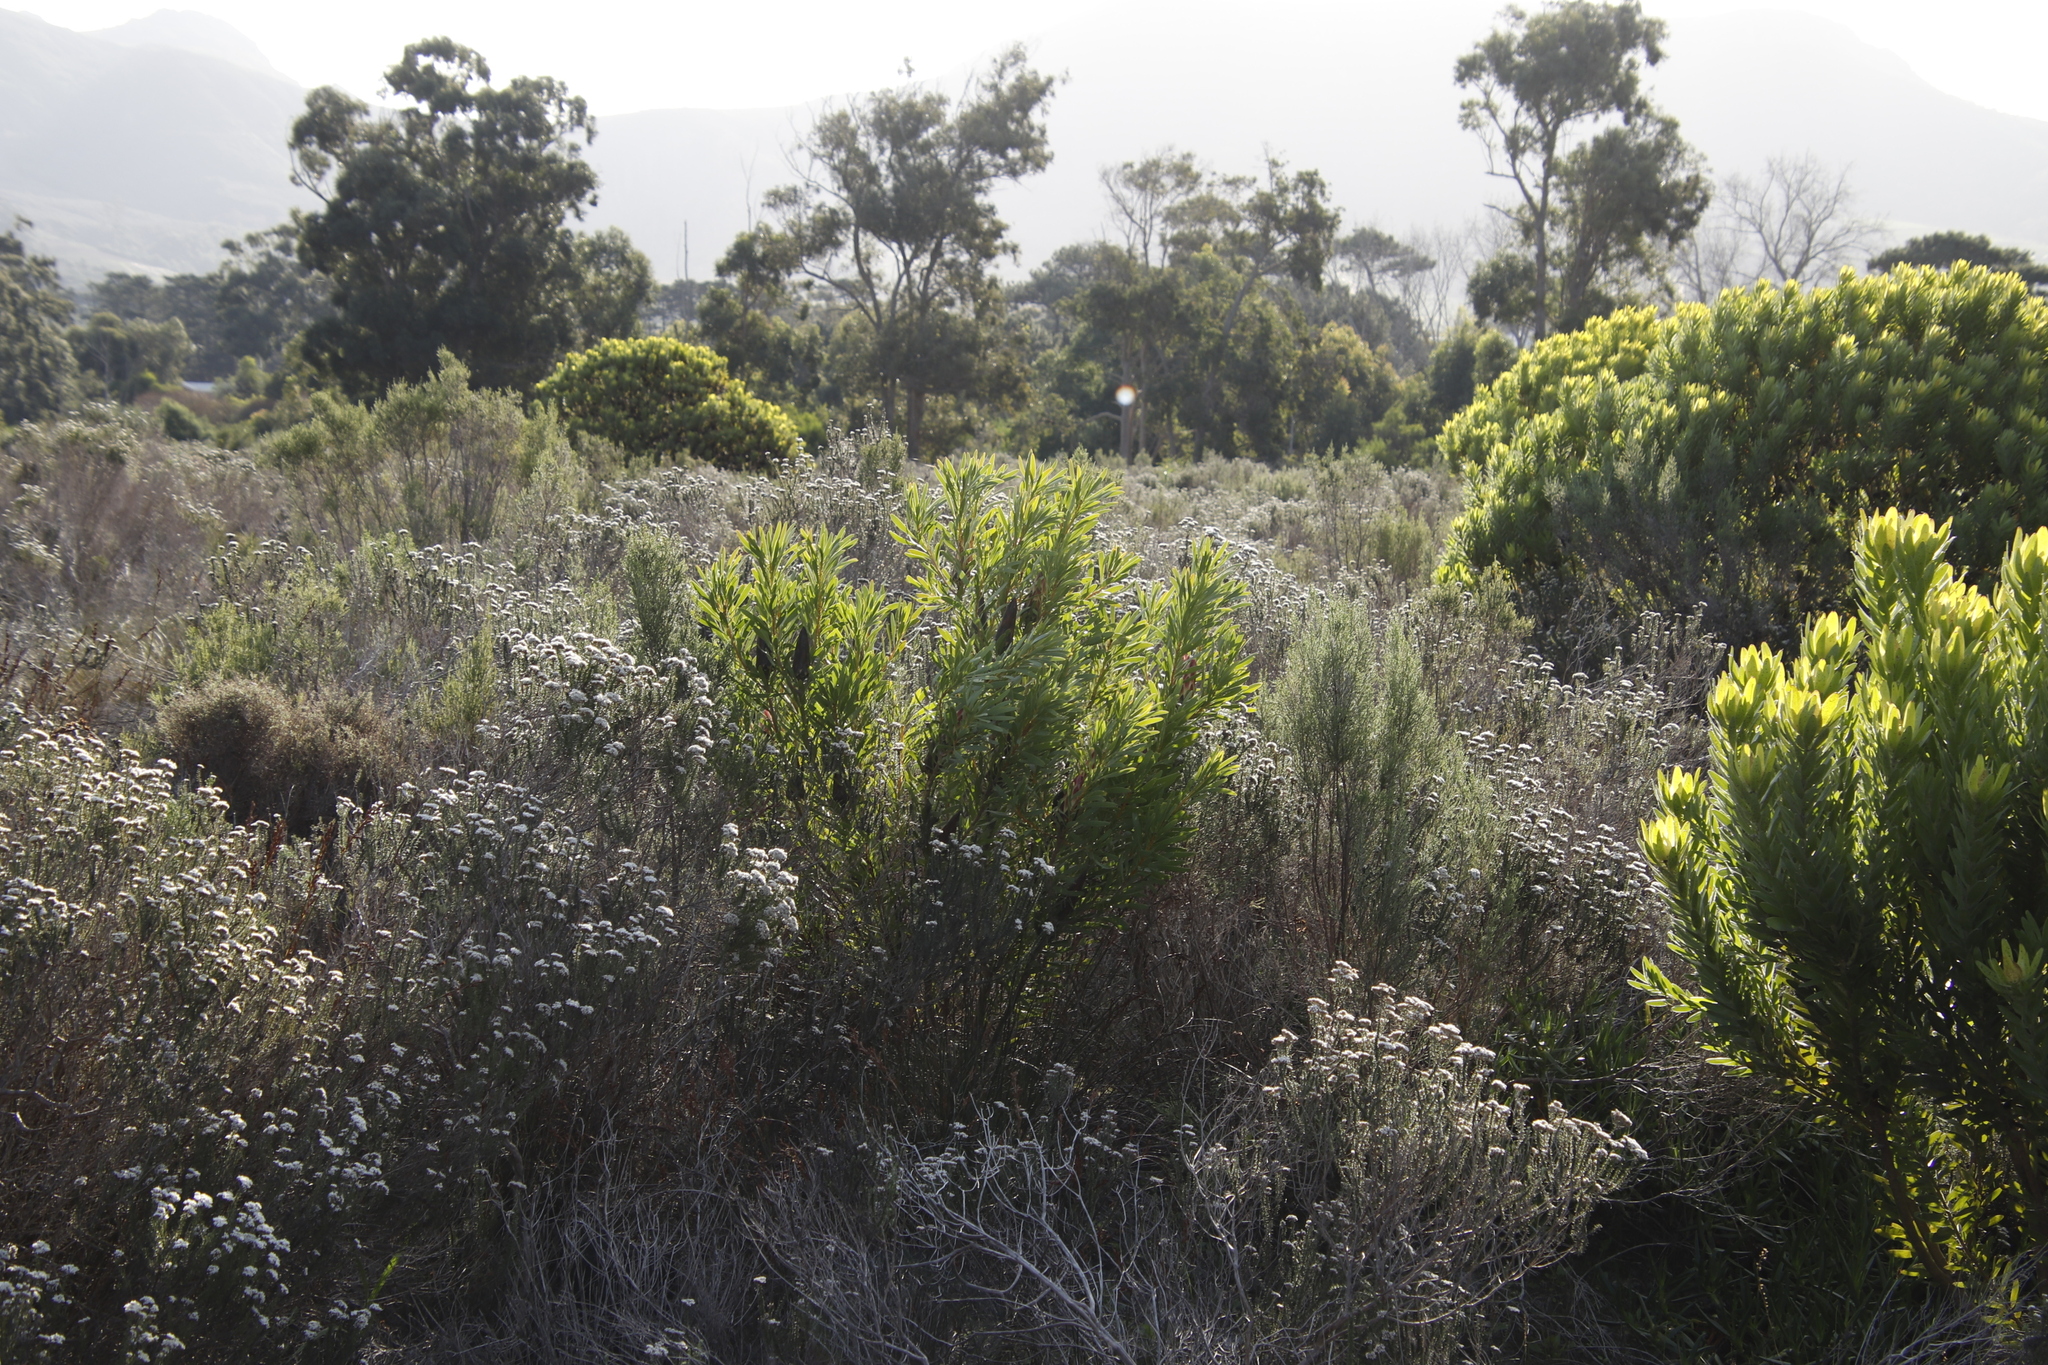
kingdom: Plantae
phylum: Tracheophyta
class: Magnoliopsida
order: Proteales
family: Proteaceae
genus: Protea
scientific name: Protea repens
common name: Sugarbush
